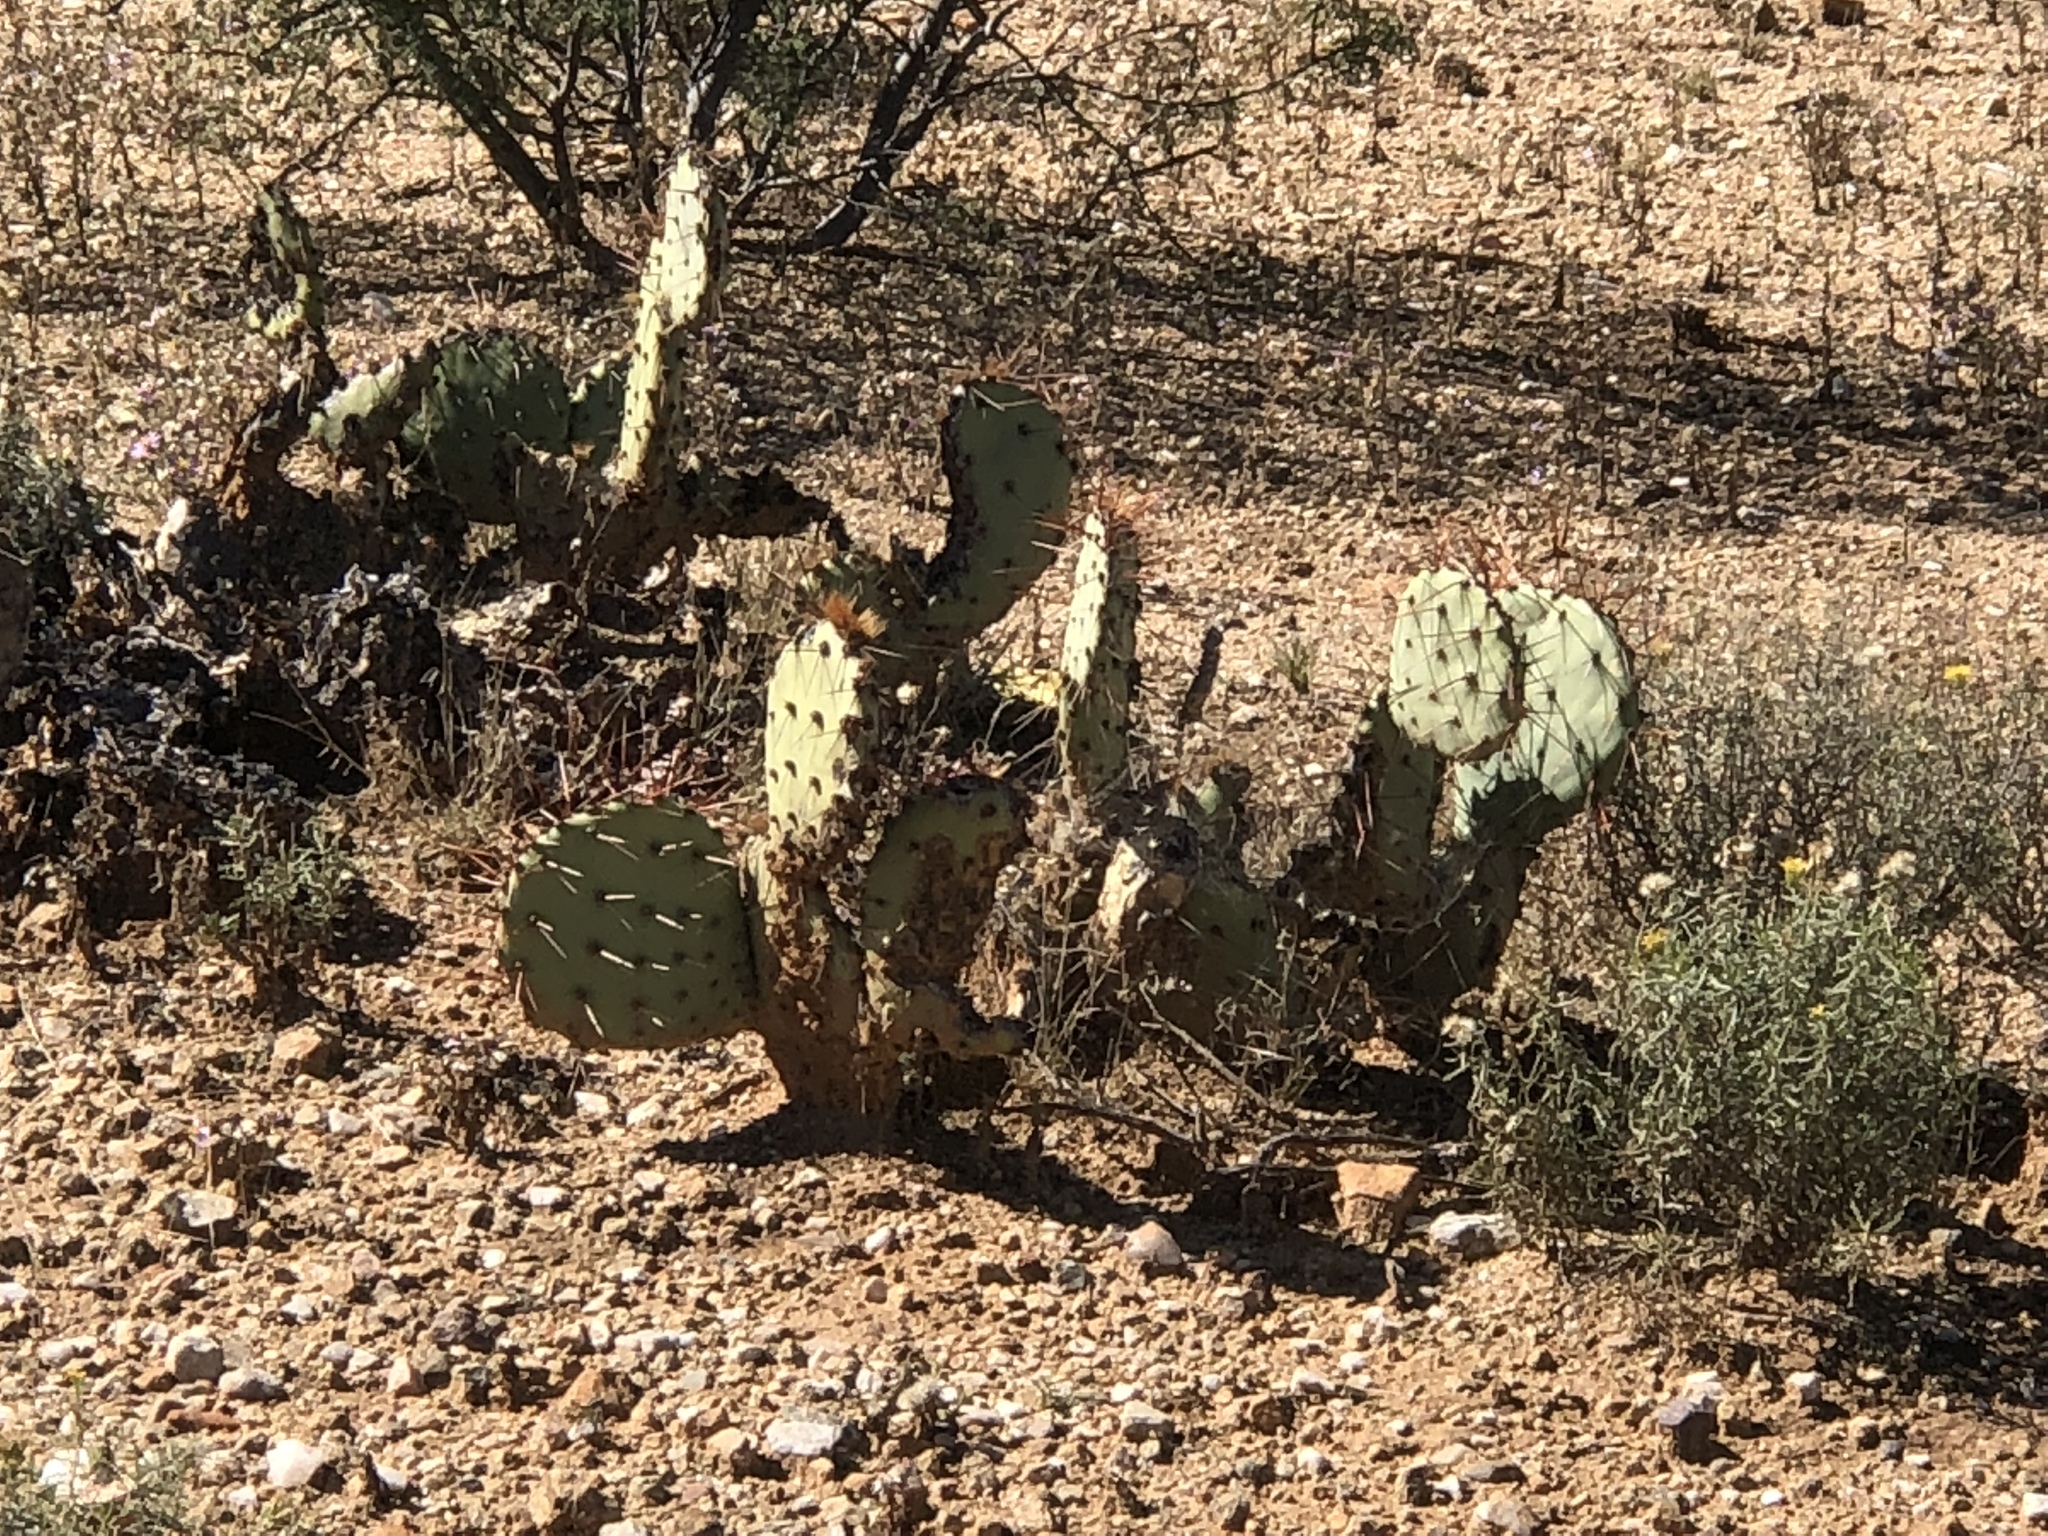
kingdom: Plantae
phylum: Tracheophyta
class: Magnoliopsida
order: Caryophyllales
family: Cactaceae
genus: Opuntia
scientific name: Opuntia engelmannii
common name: Cactus-apple
